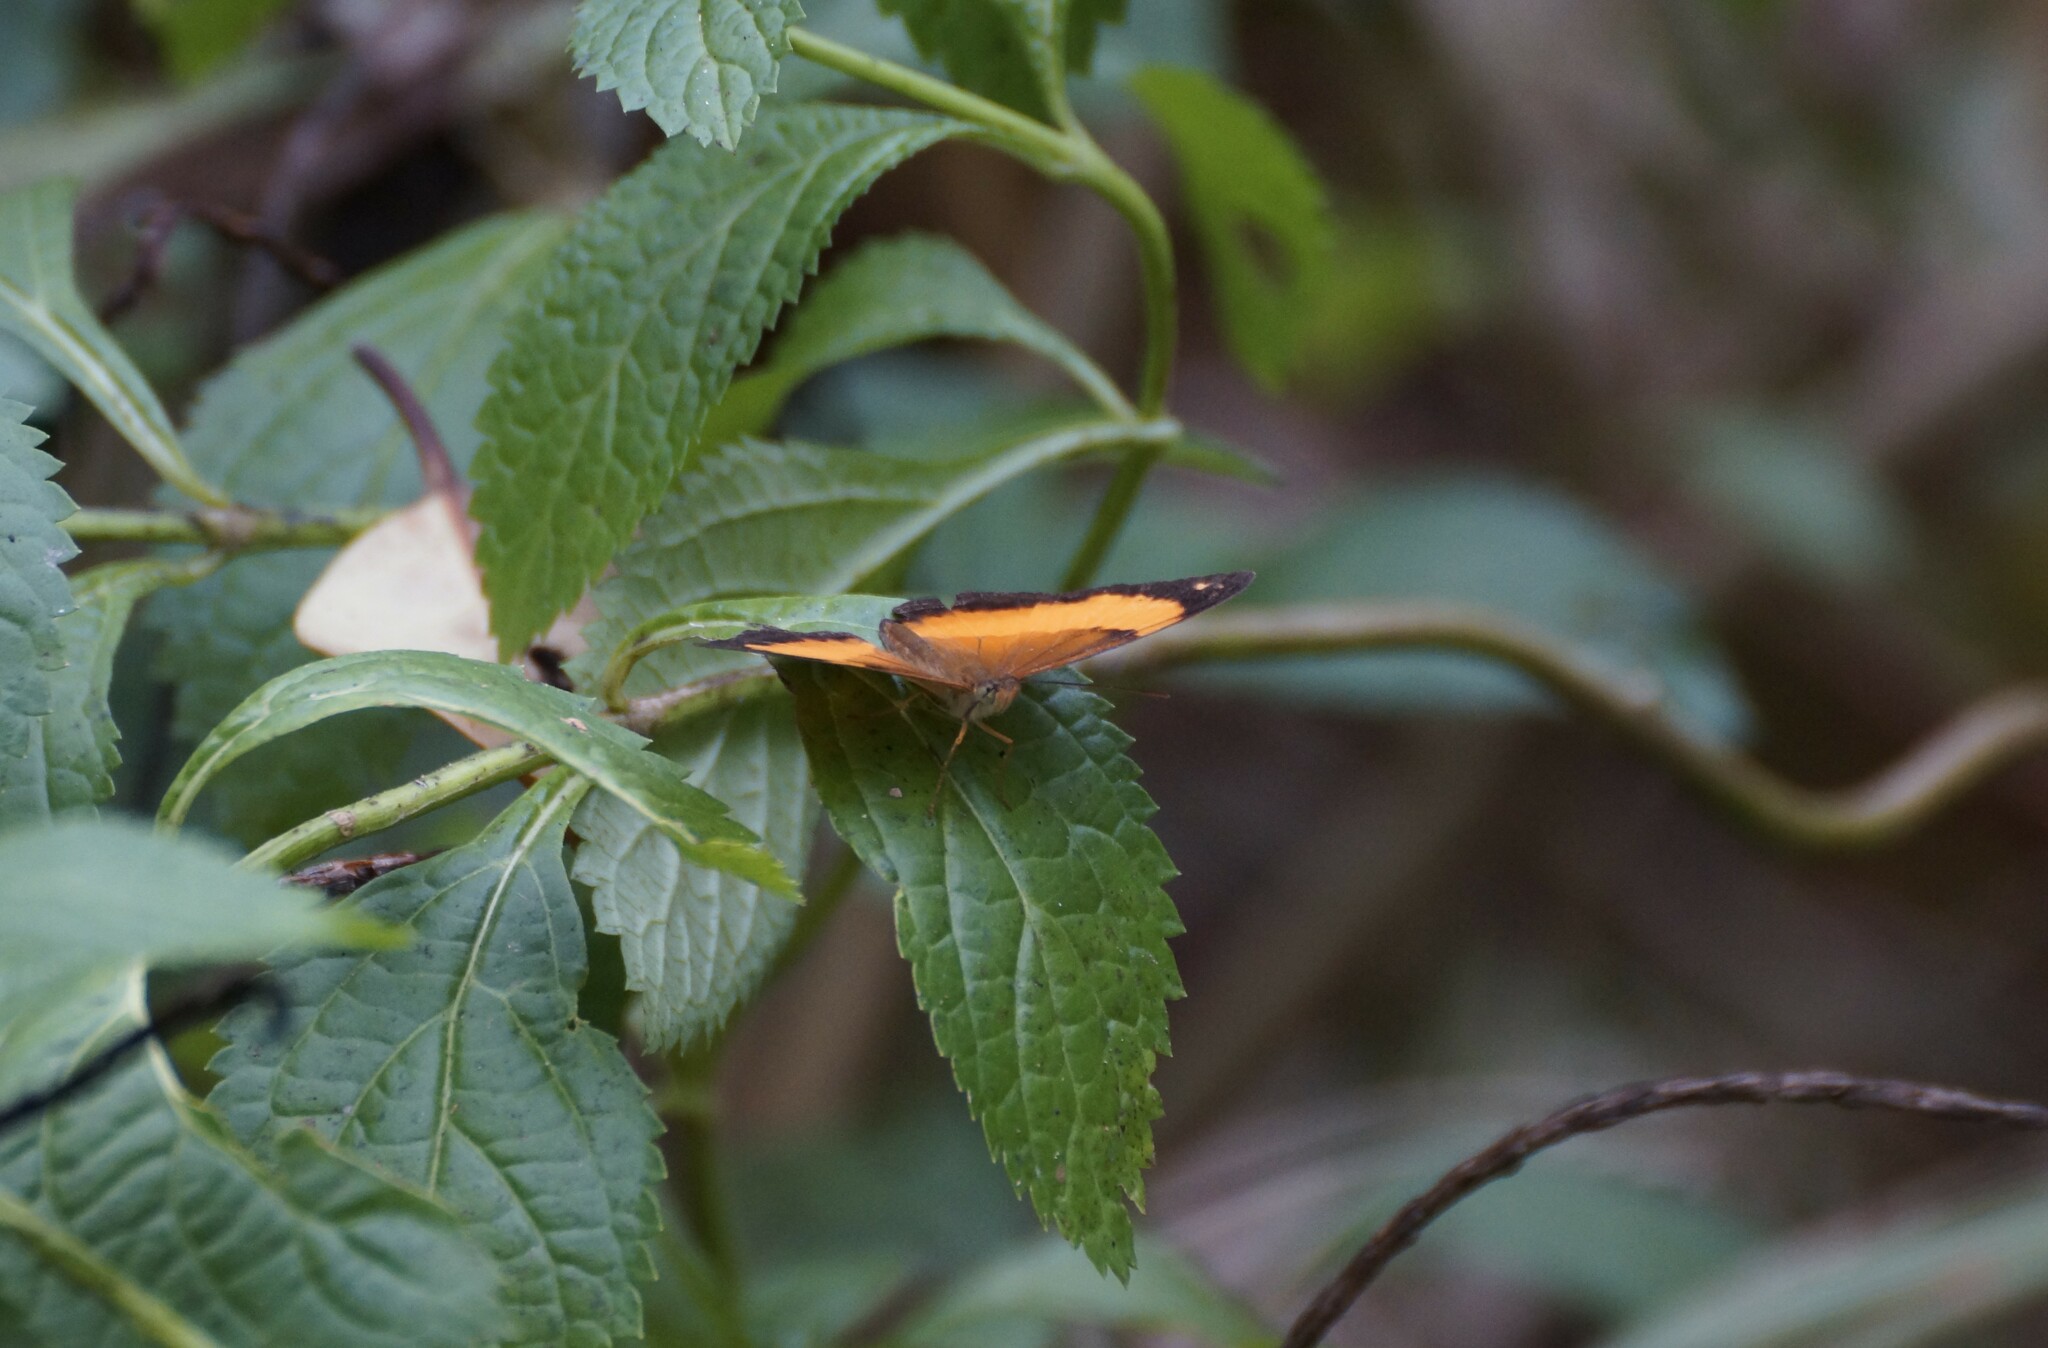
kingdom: Animalia
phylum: Arthropoda
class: Insecta
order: Lepidoptera
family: Nymphalidae
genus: Cupha
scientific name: Cupha prosope
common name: Bordered rustic
